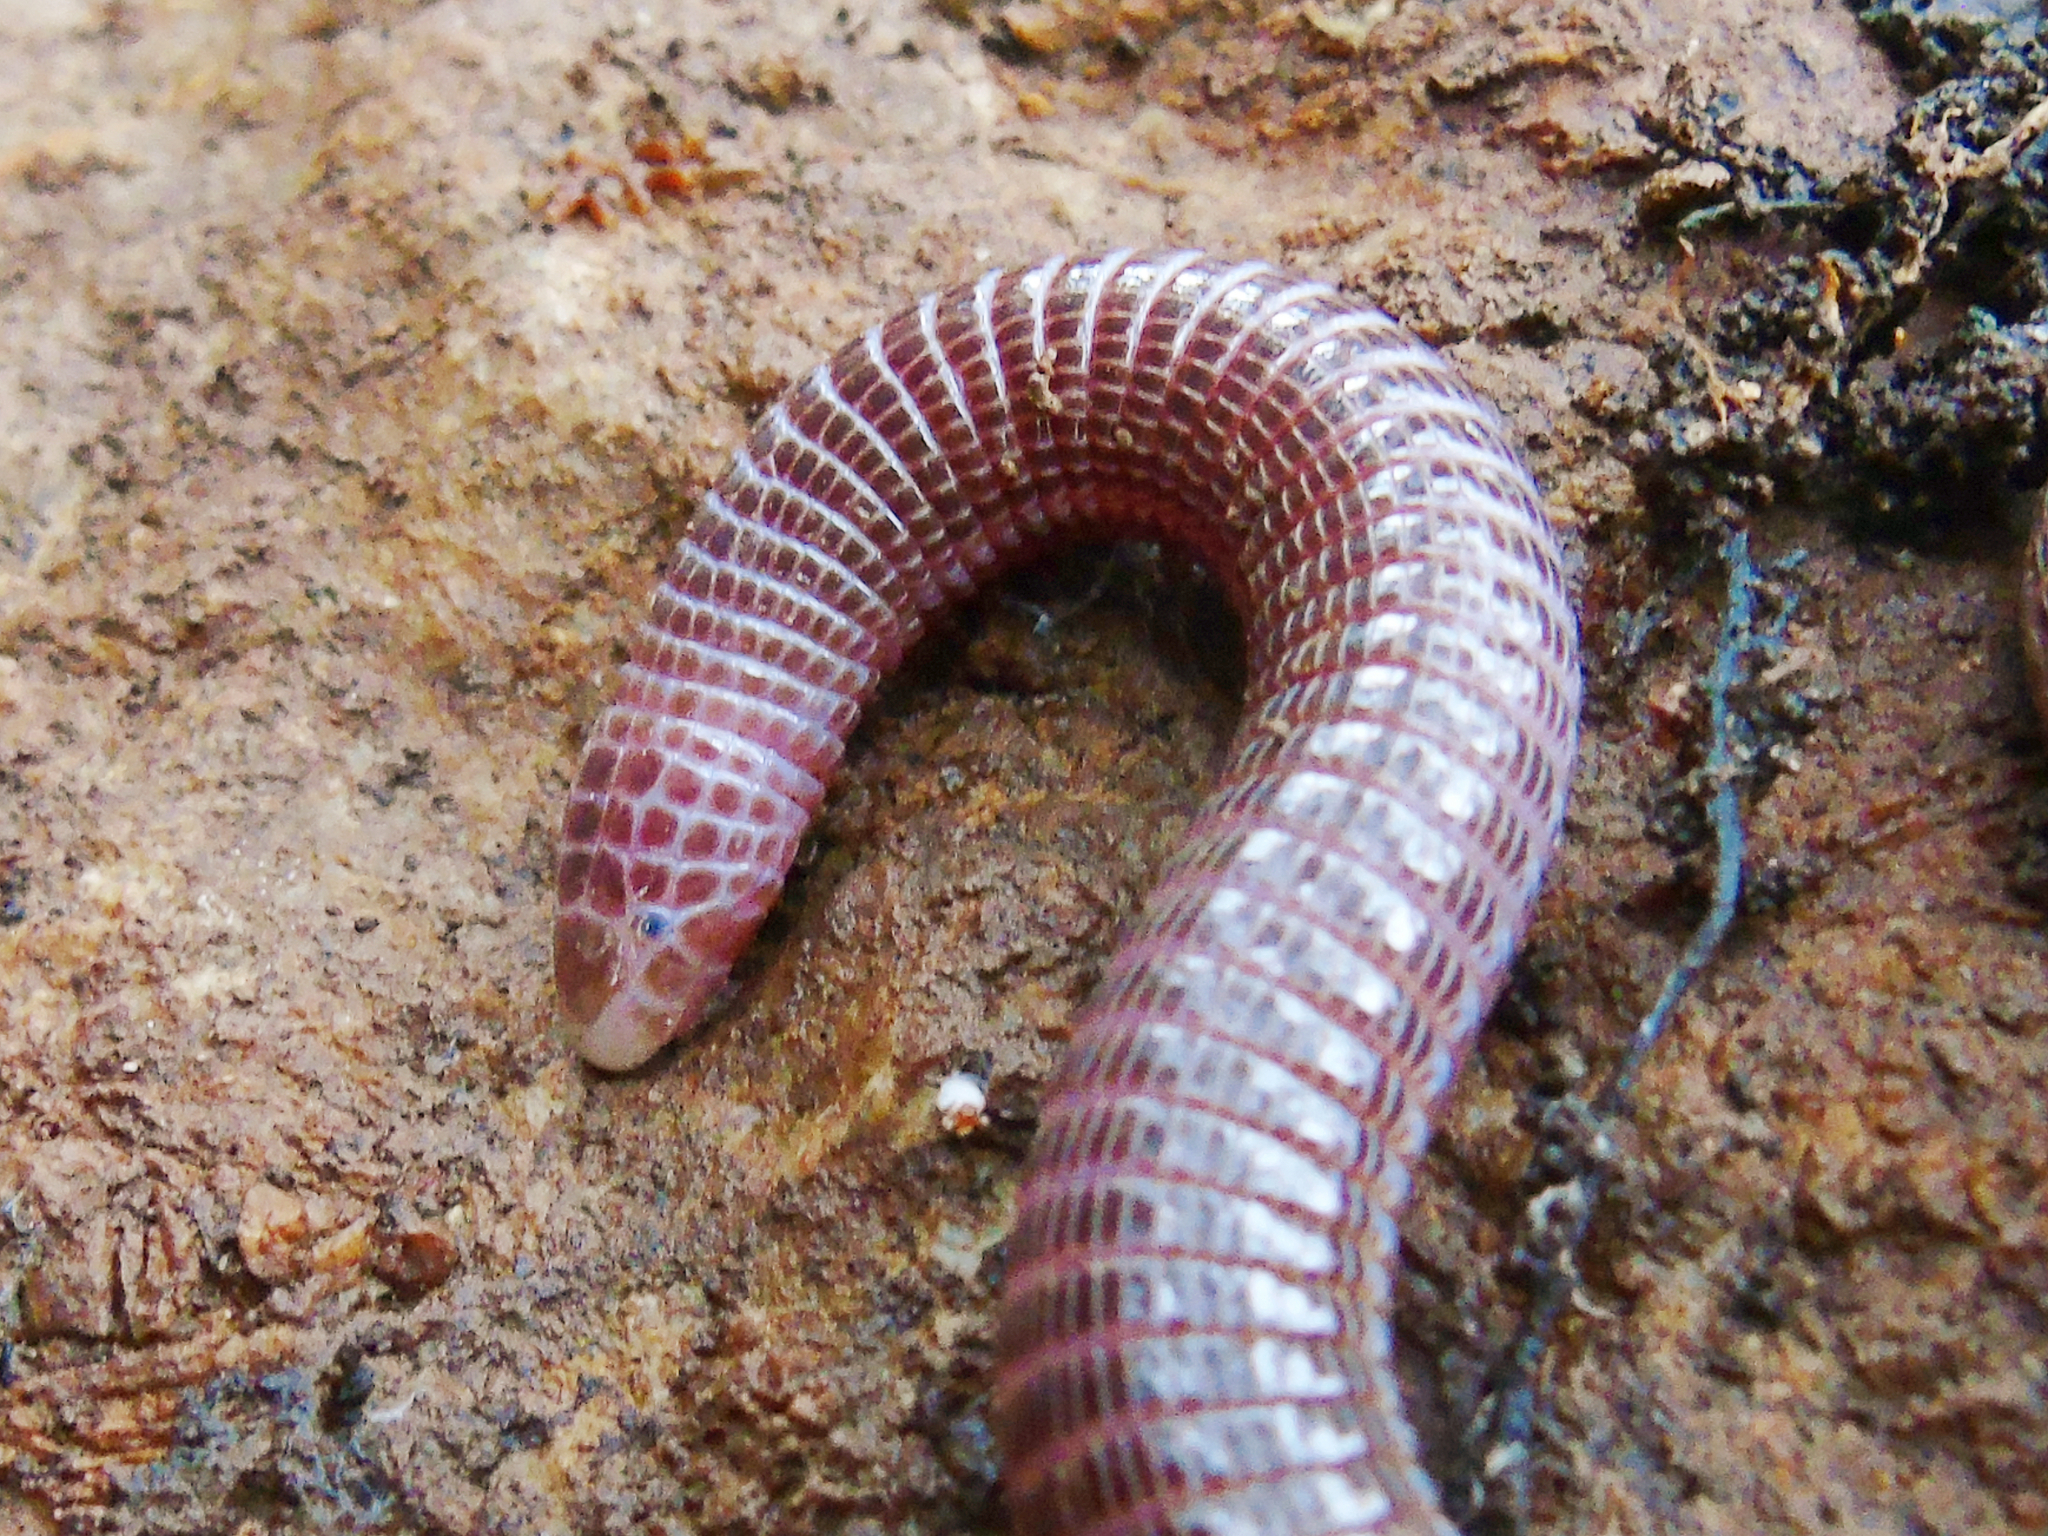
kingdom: Animalia
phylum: Chordata
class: Squamata
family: Blanidae
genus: Blanus
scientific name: Blanus strauchi
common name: Turkish worm lizard
